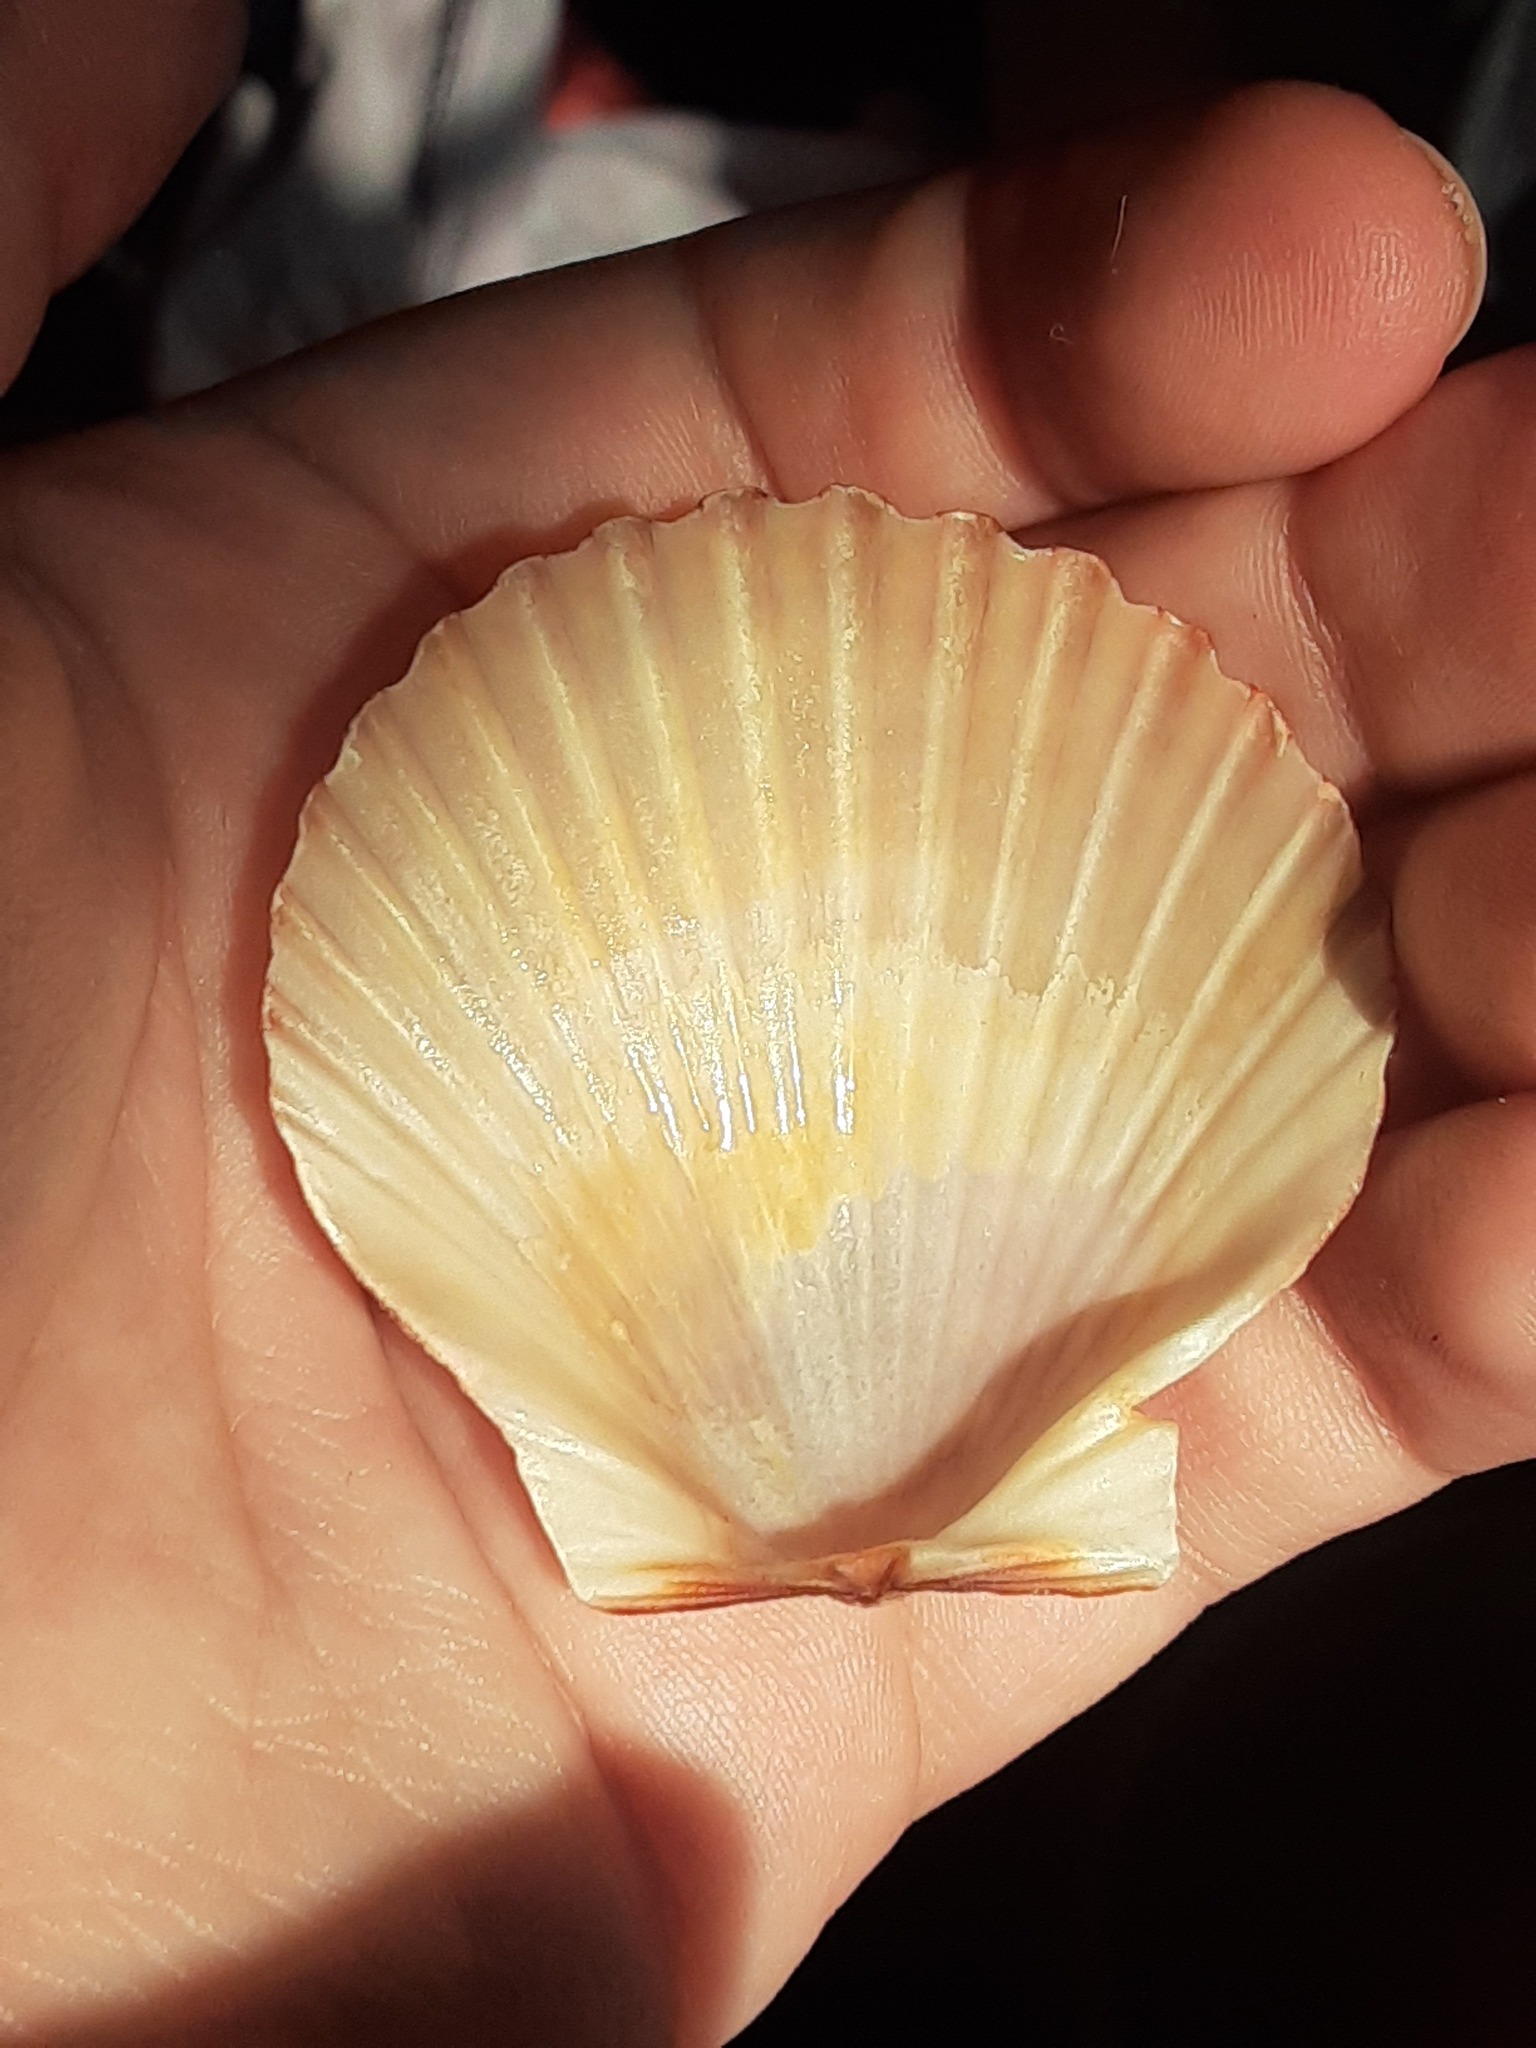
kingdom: Animalia
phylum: Mollusca
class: Bivalvia
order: Pectinida
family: Pectinidae
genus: Argopecten
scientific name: Argopecten irradians
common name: Atlantic bay scallop
